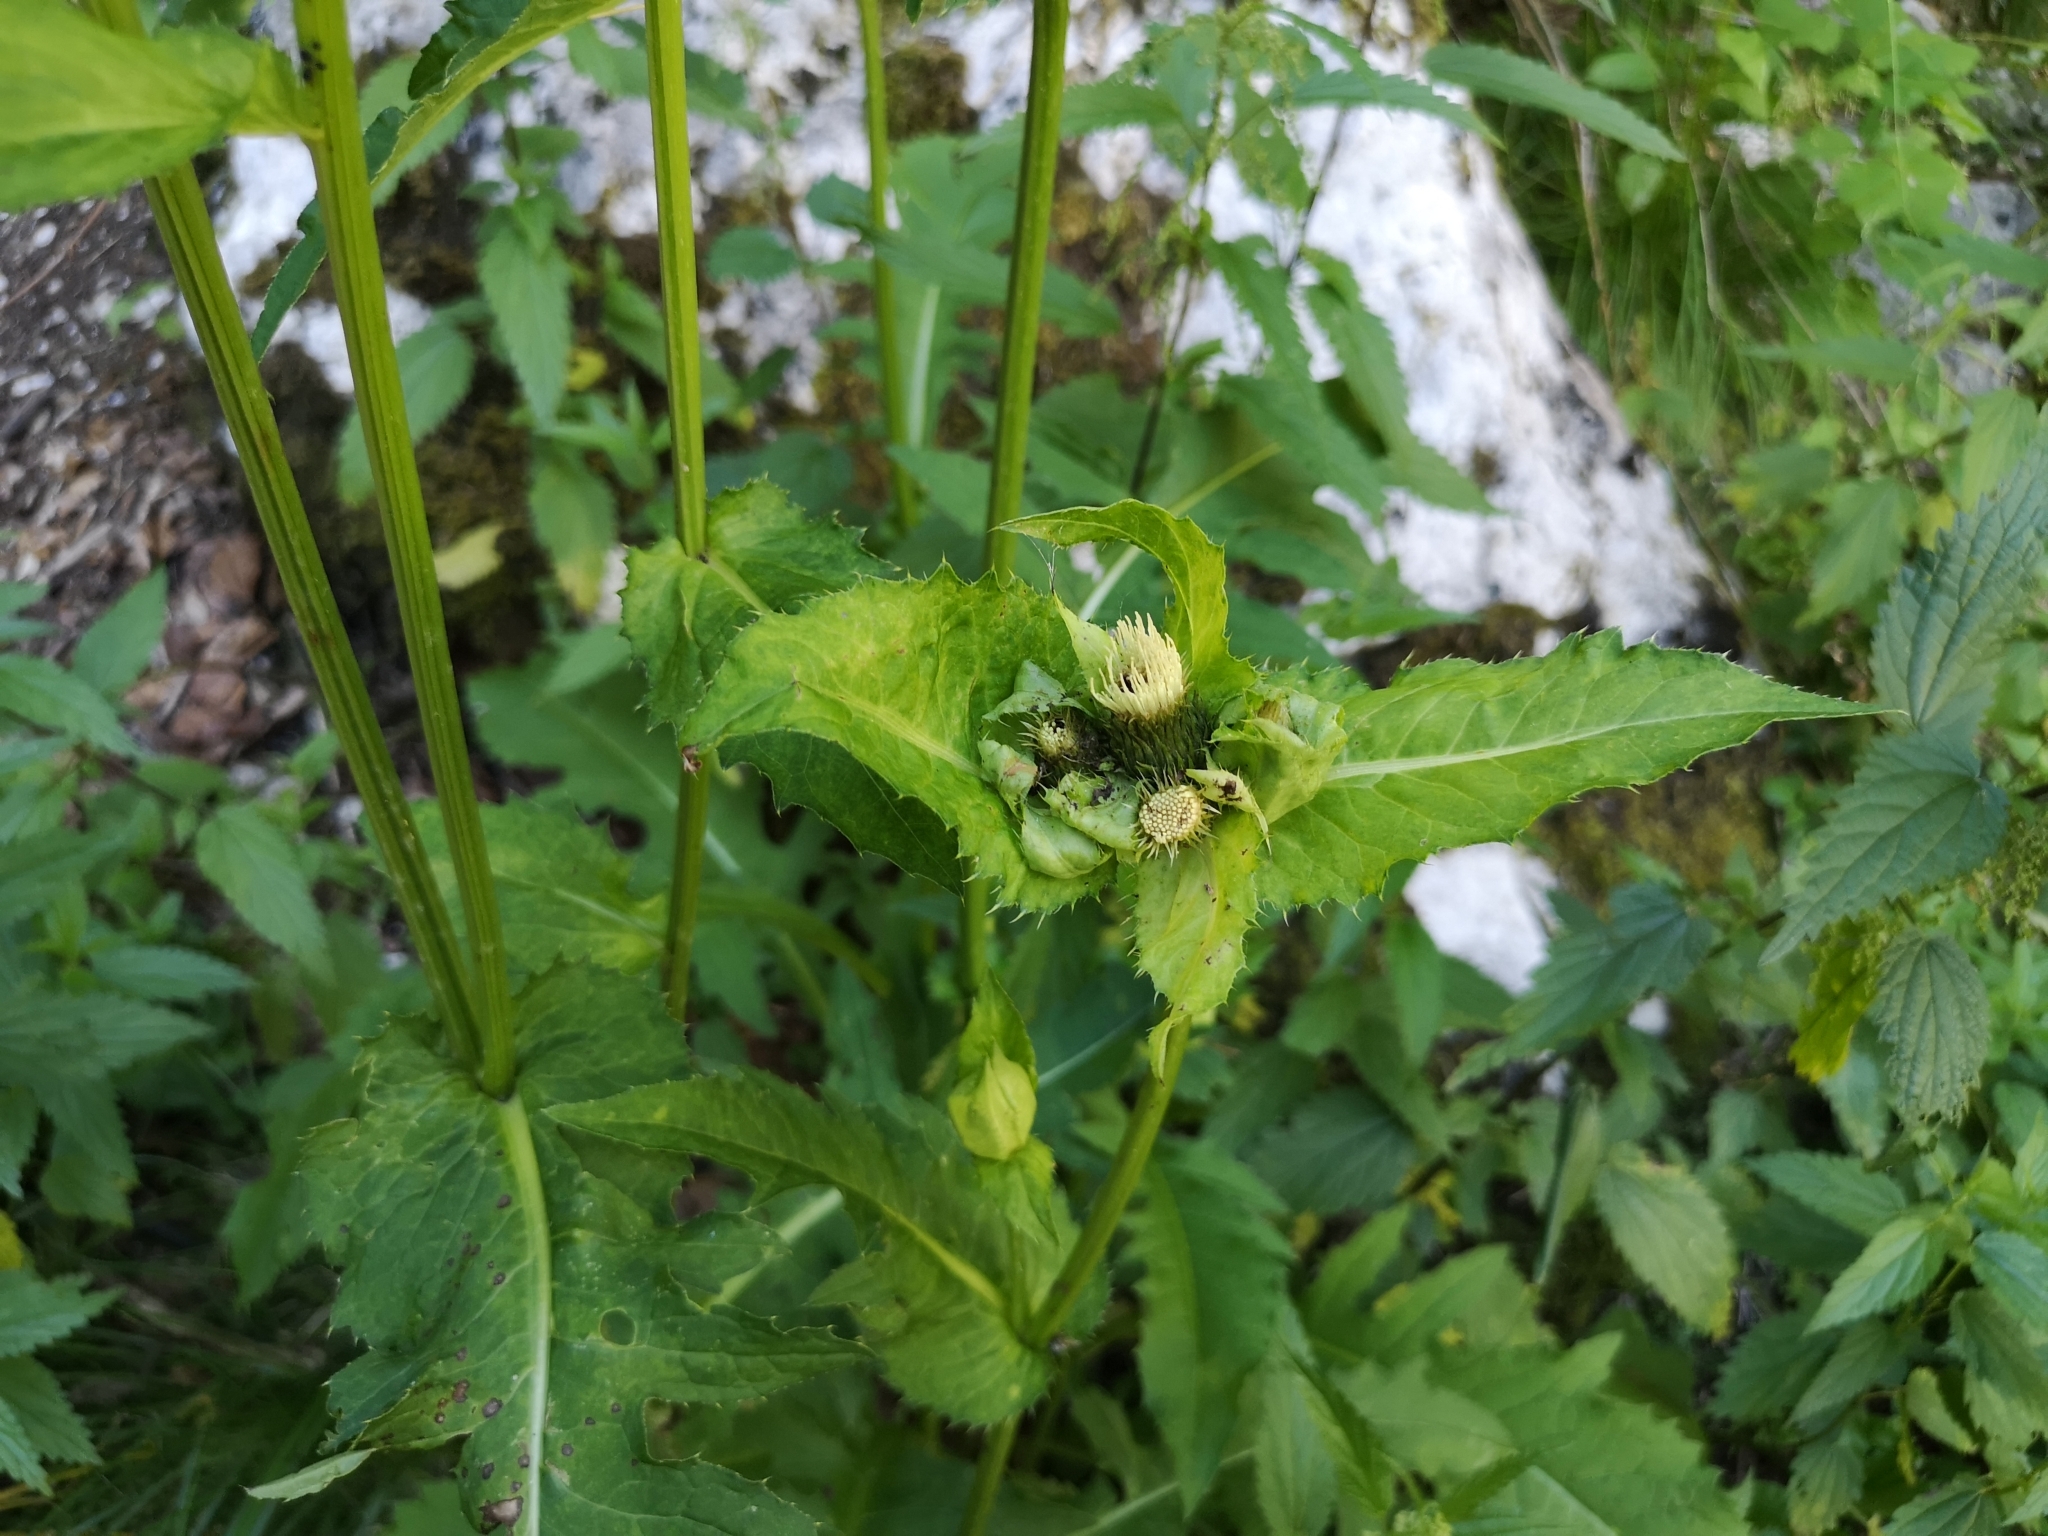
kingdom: Plantae
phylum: Tracheophyta
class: Magnoliopsida
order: Asterales
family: Asteraceae
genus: Cirsium
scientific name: Cirsium oleraceum
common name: Cabbage thistle
